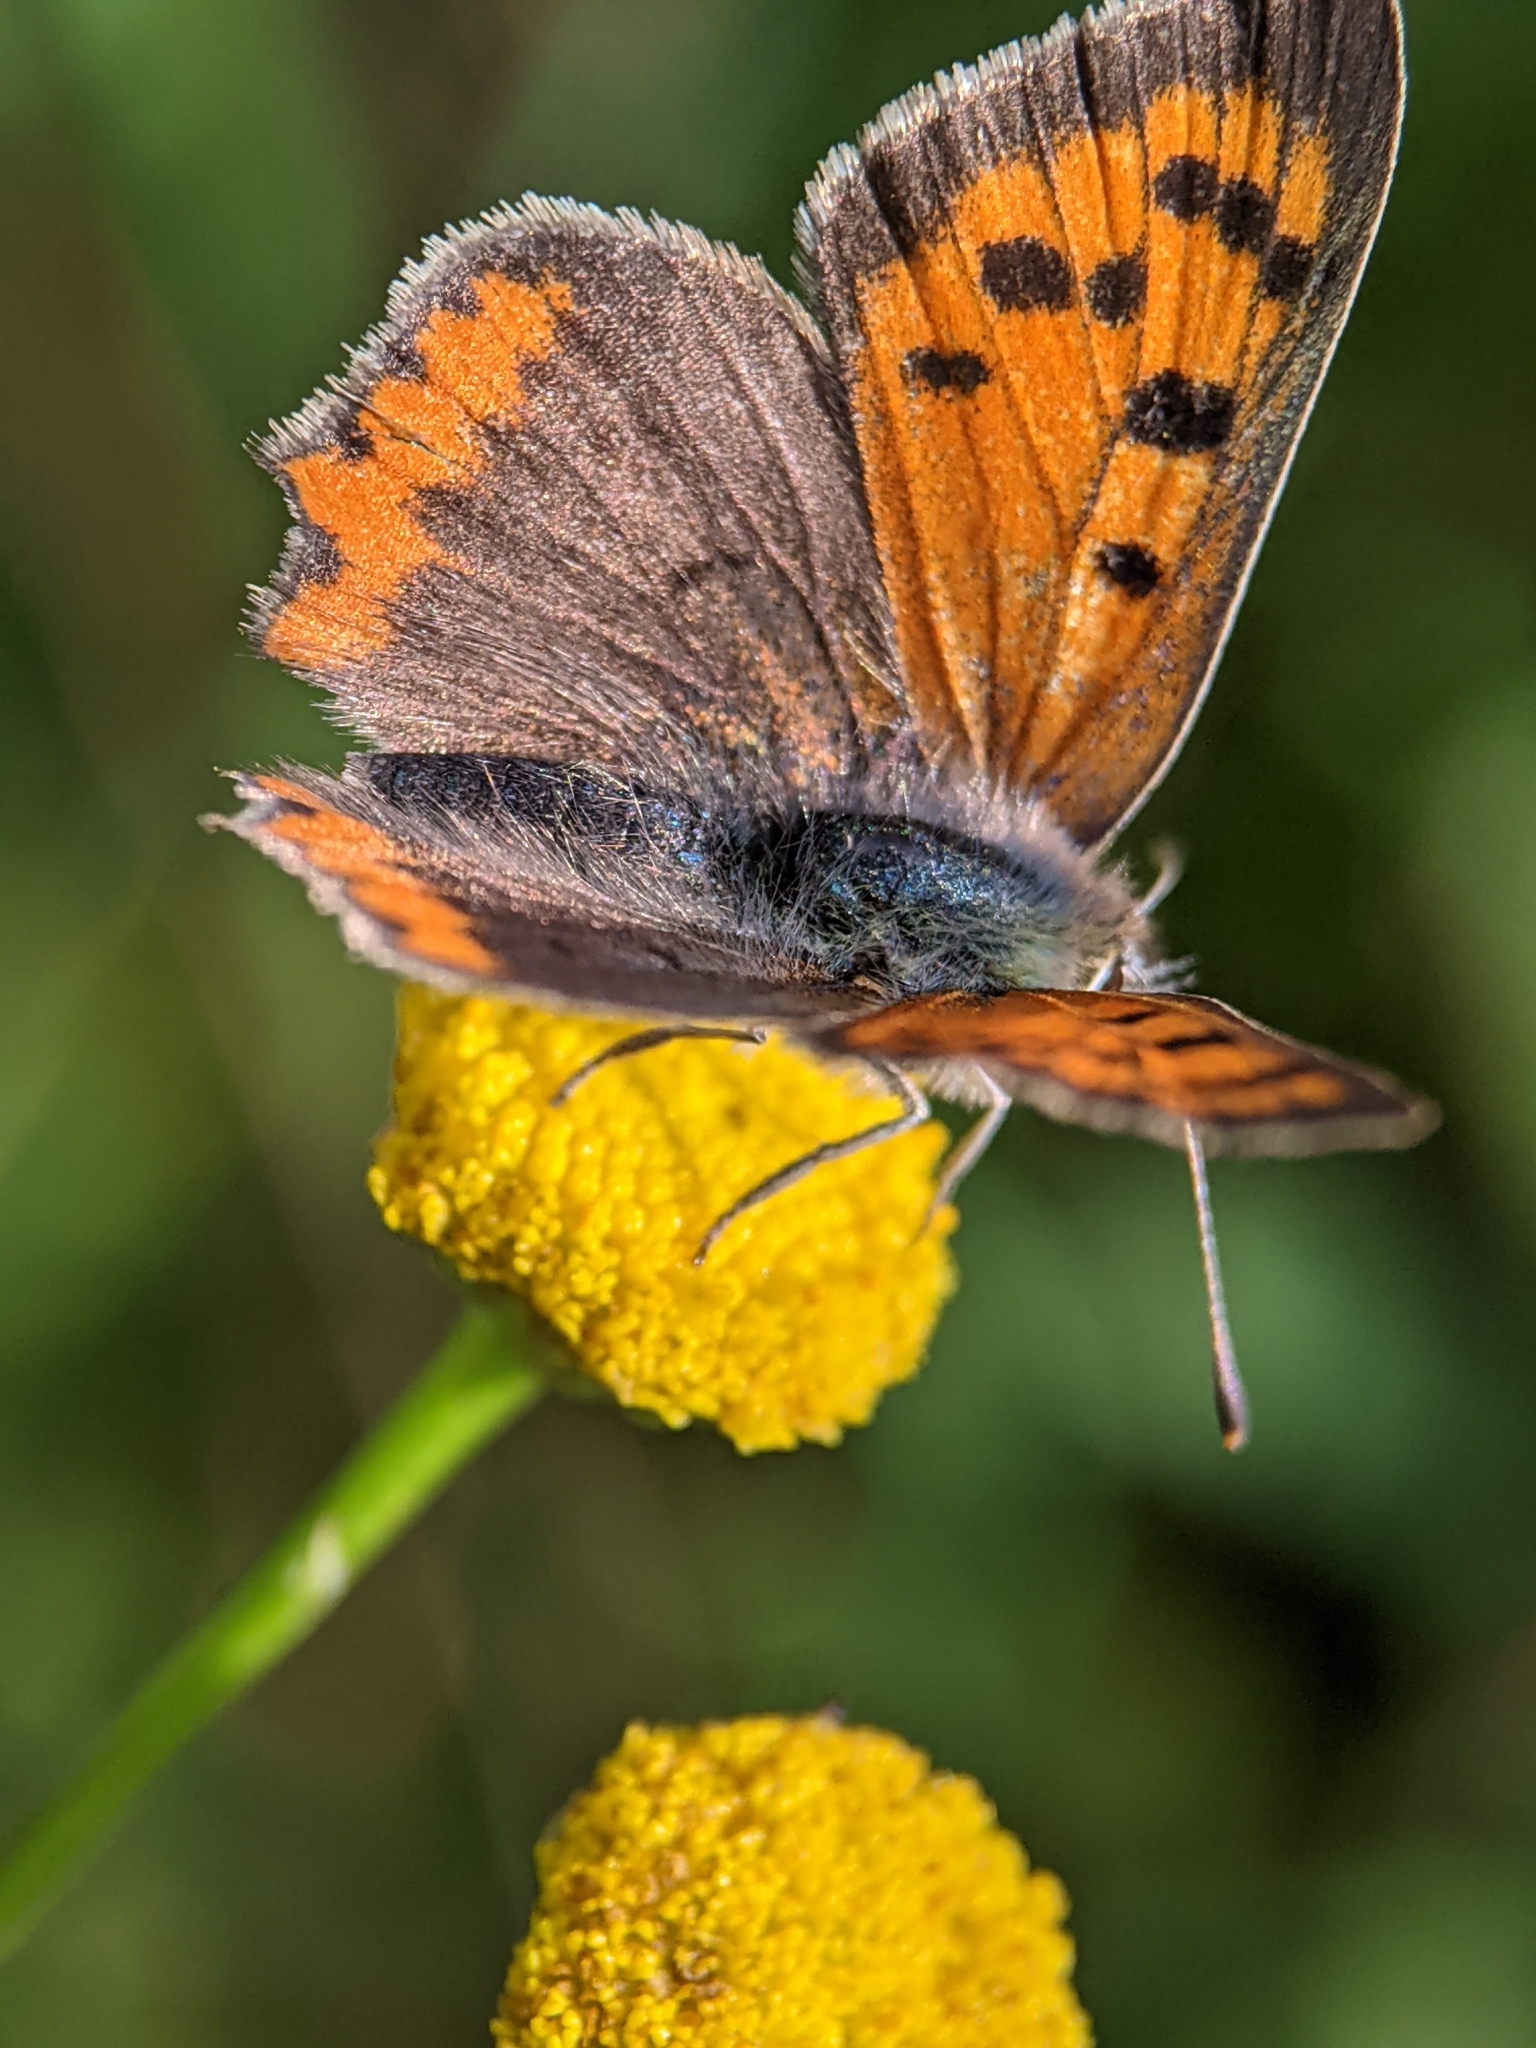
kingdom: Animalia
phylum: Arthropoda
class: Insecta
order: Lepidoptera
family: Lycaenidae
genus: Lycaena
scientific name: Lycaena phlaeas
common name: Small copper
